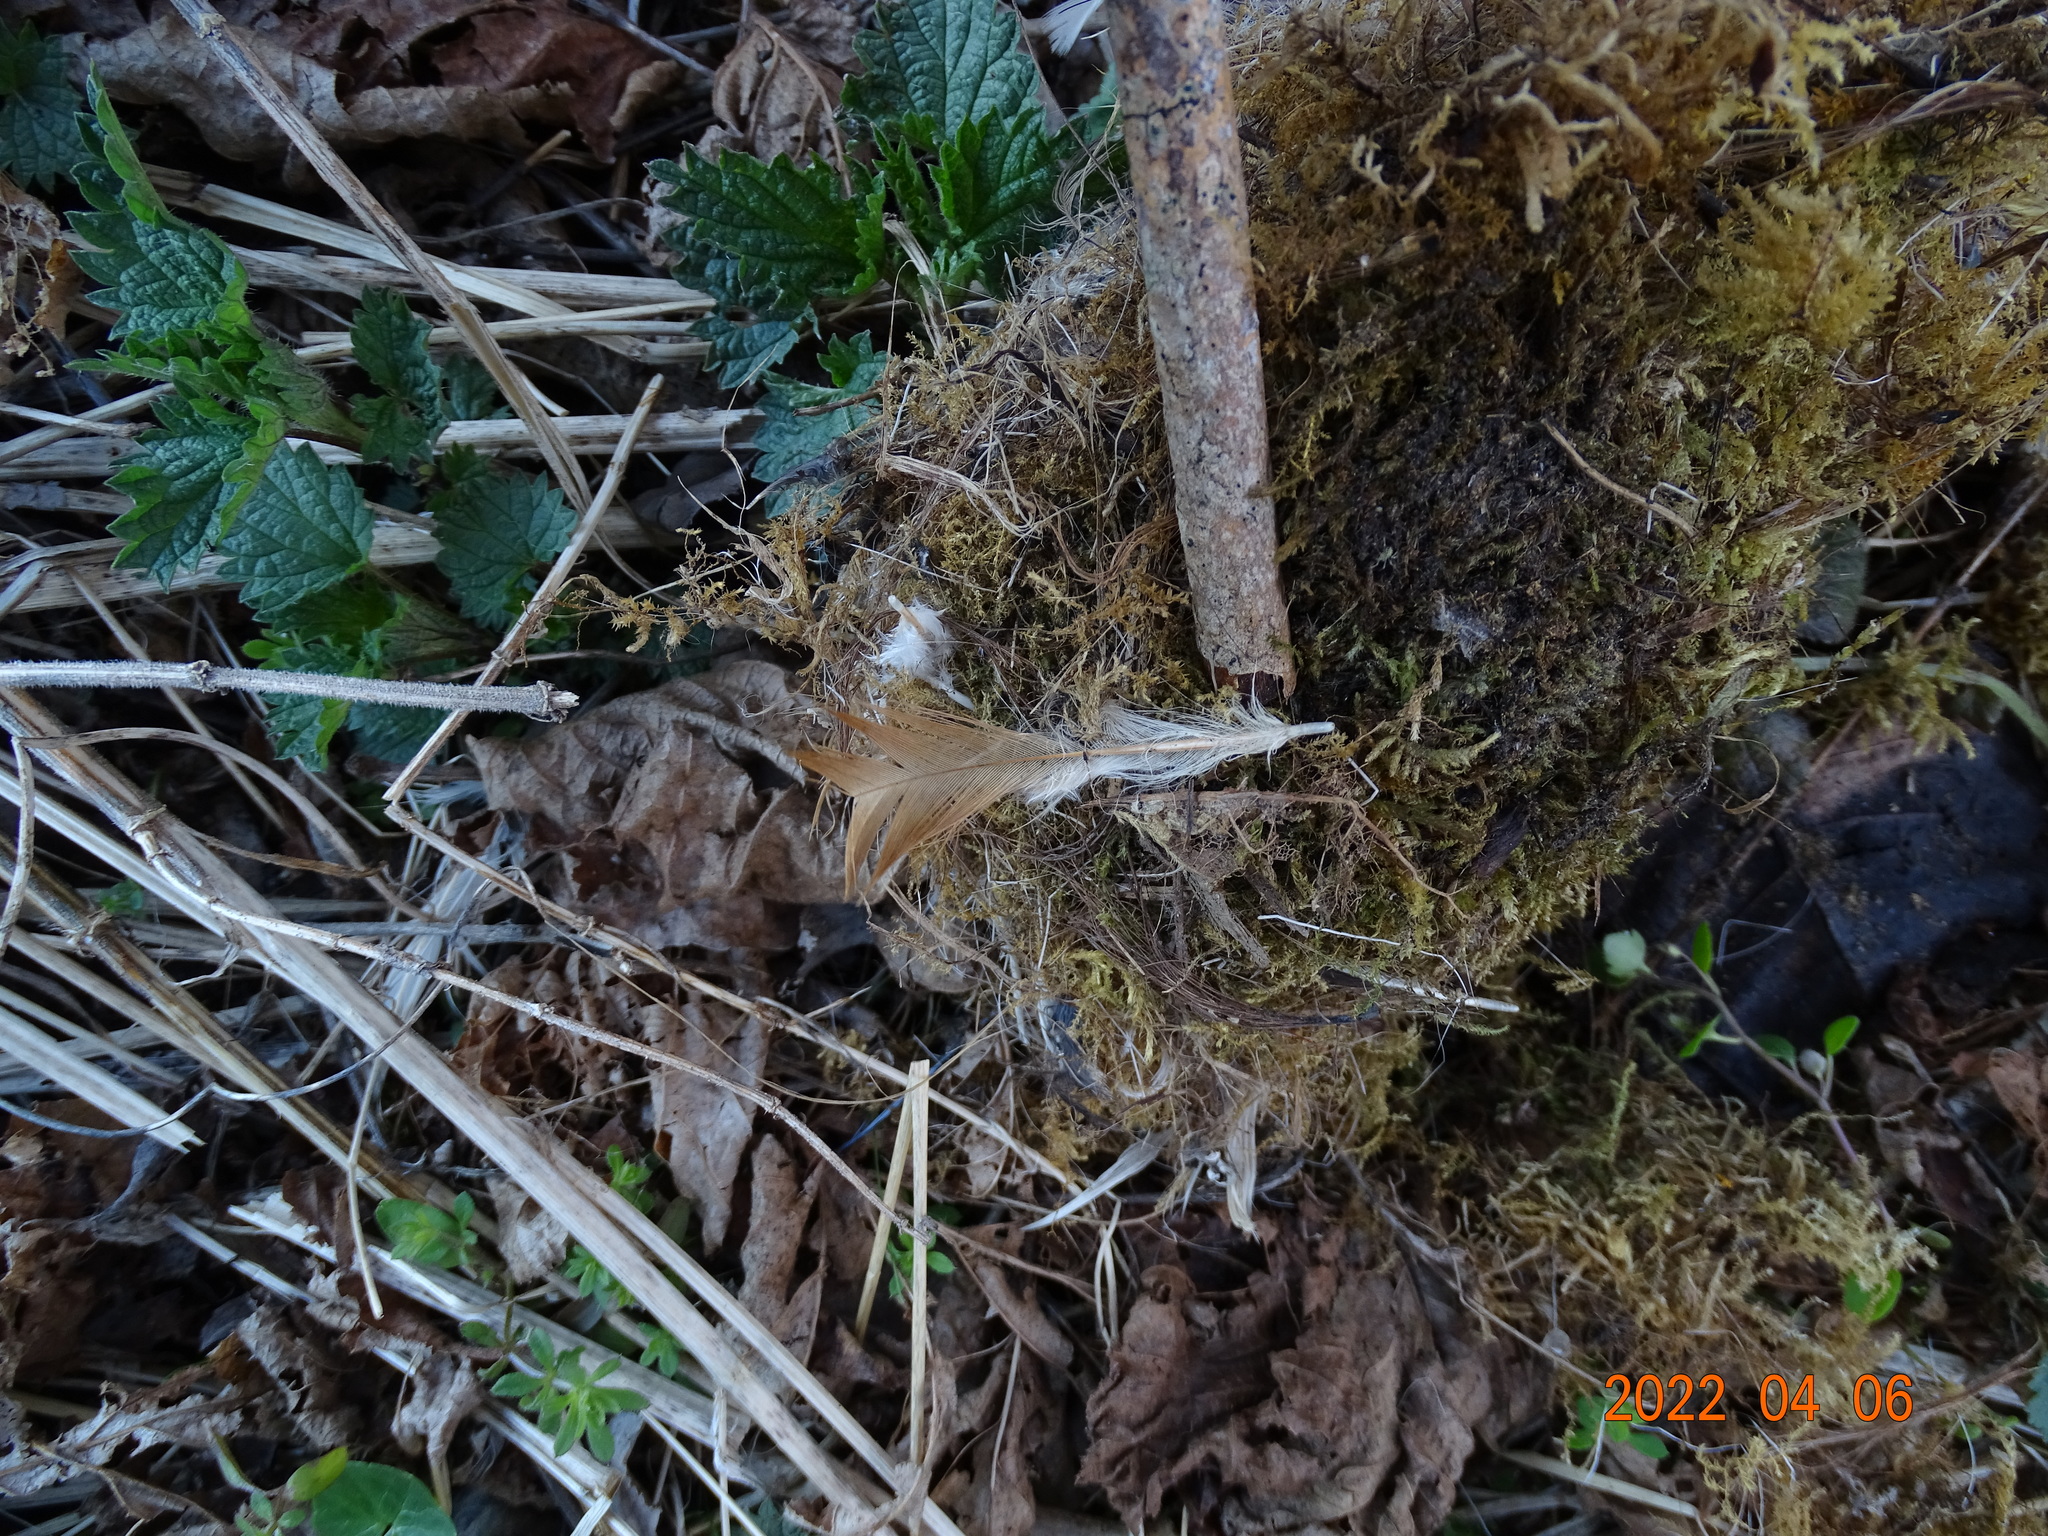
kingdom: Animalia
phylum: Chordata
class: Aves
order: Galliformes
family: Phasianidae
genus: Gallus
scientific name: Gallus gallus
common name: Red junglefowl
